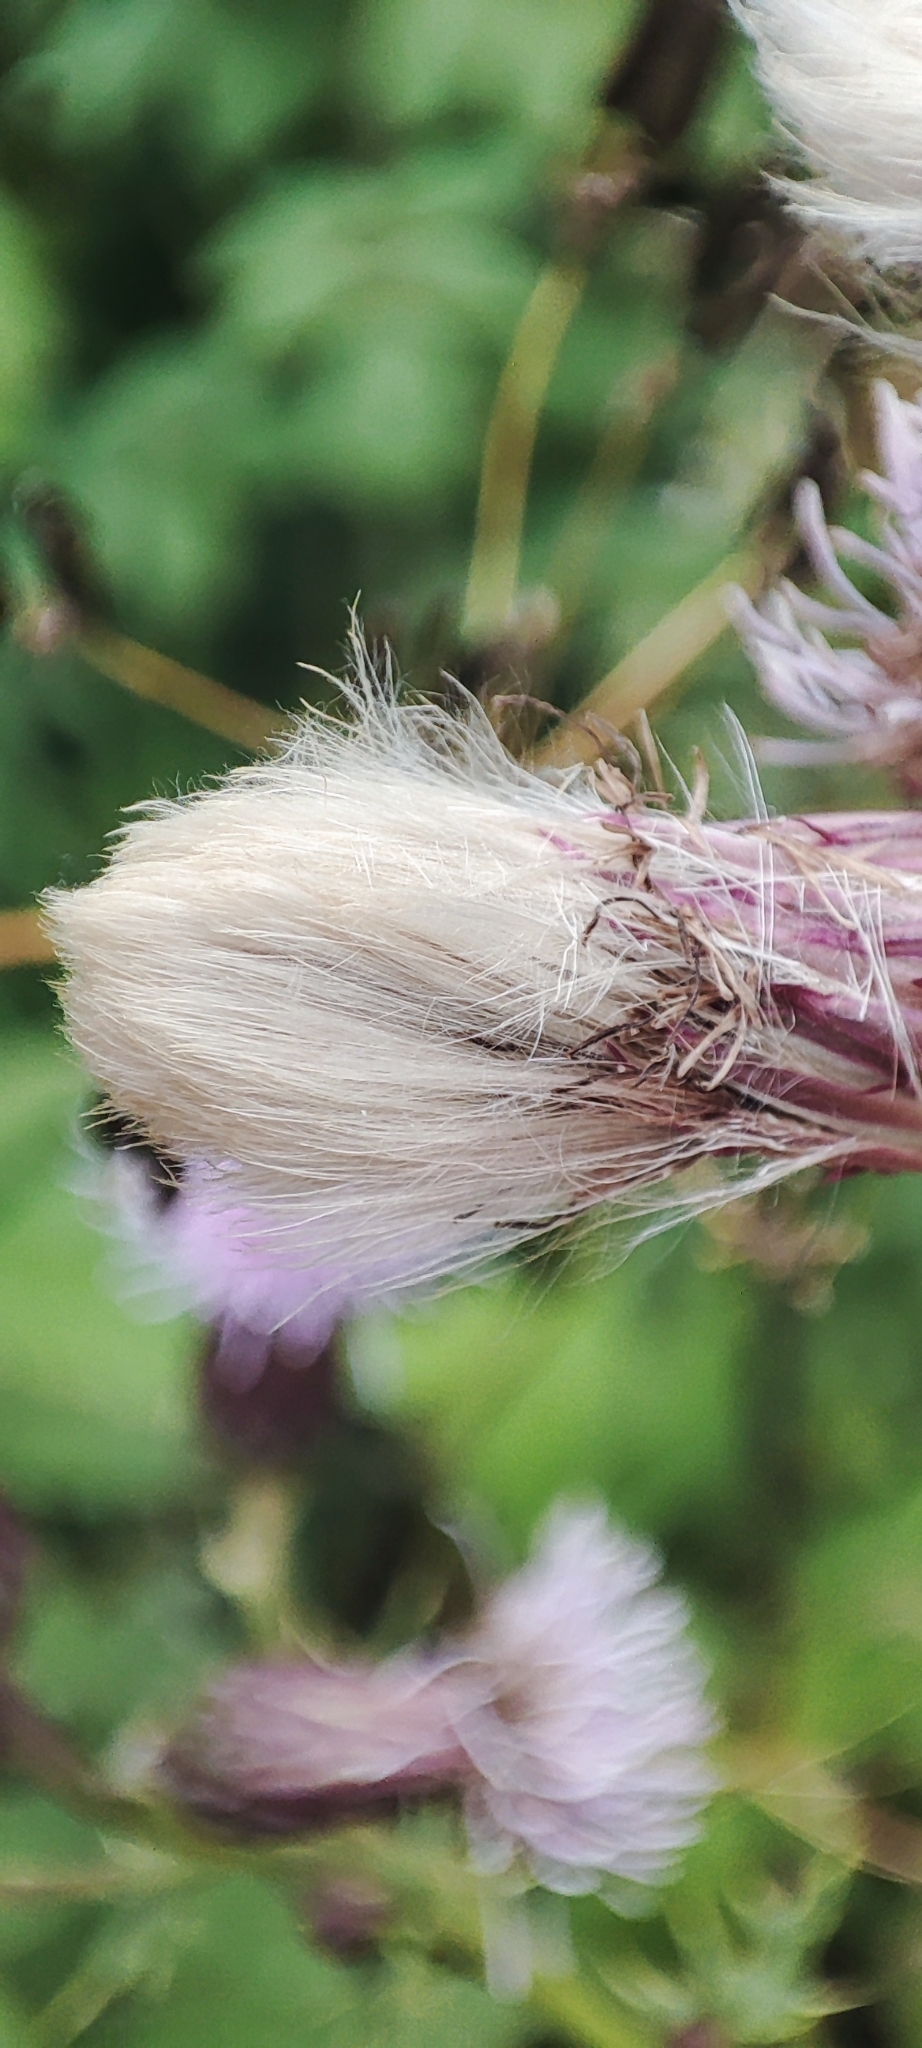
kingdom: Plantae
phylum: Tracheophyta
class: Magnoliopsida
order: Asterales
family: Asteraceae
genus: Cirsium
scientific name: Cirsium arvense
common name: Creeping thistle
